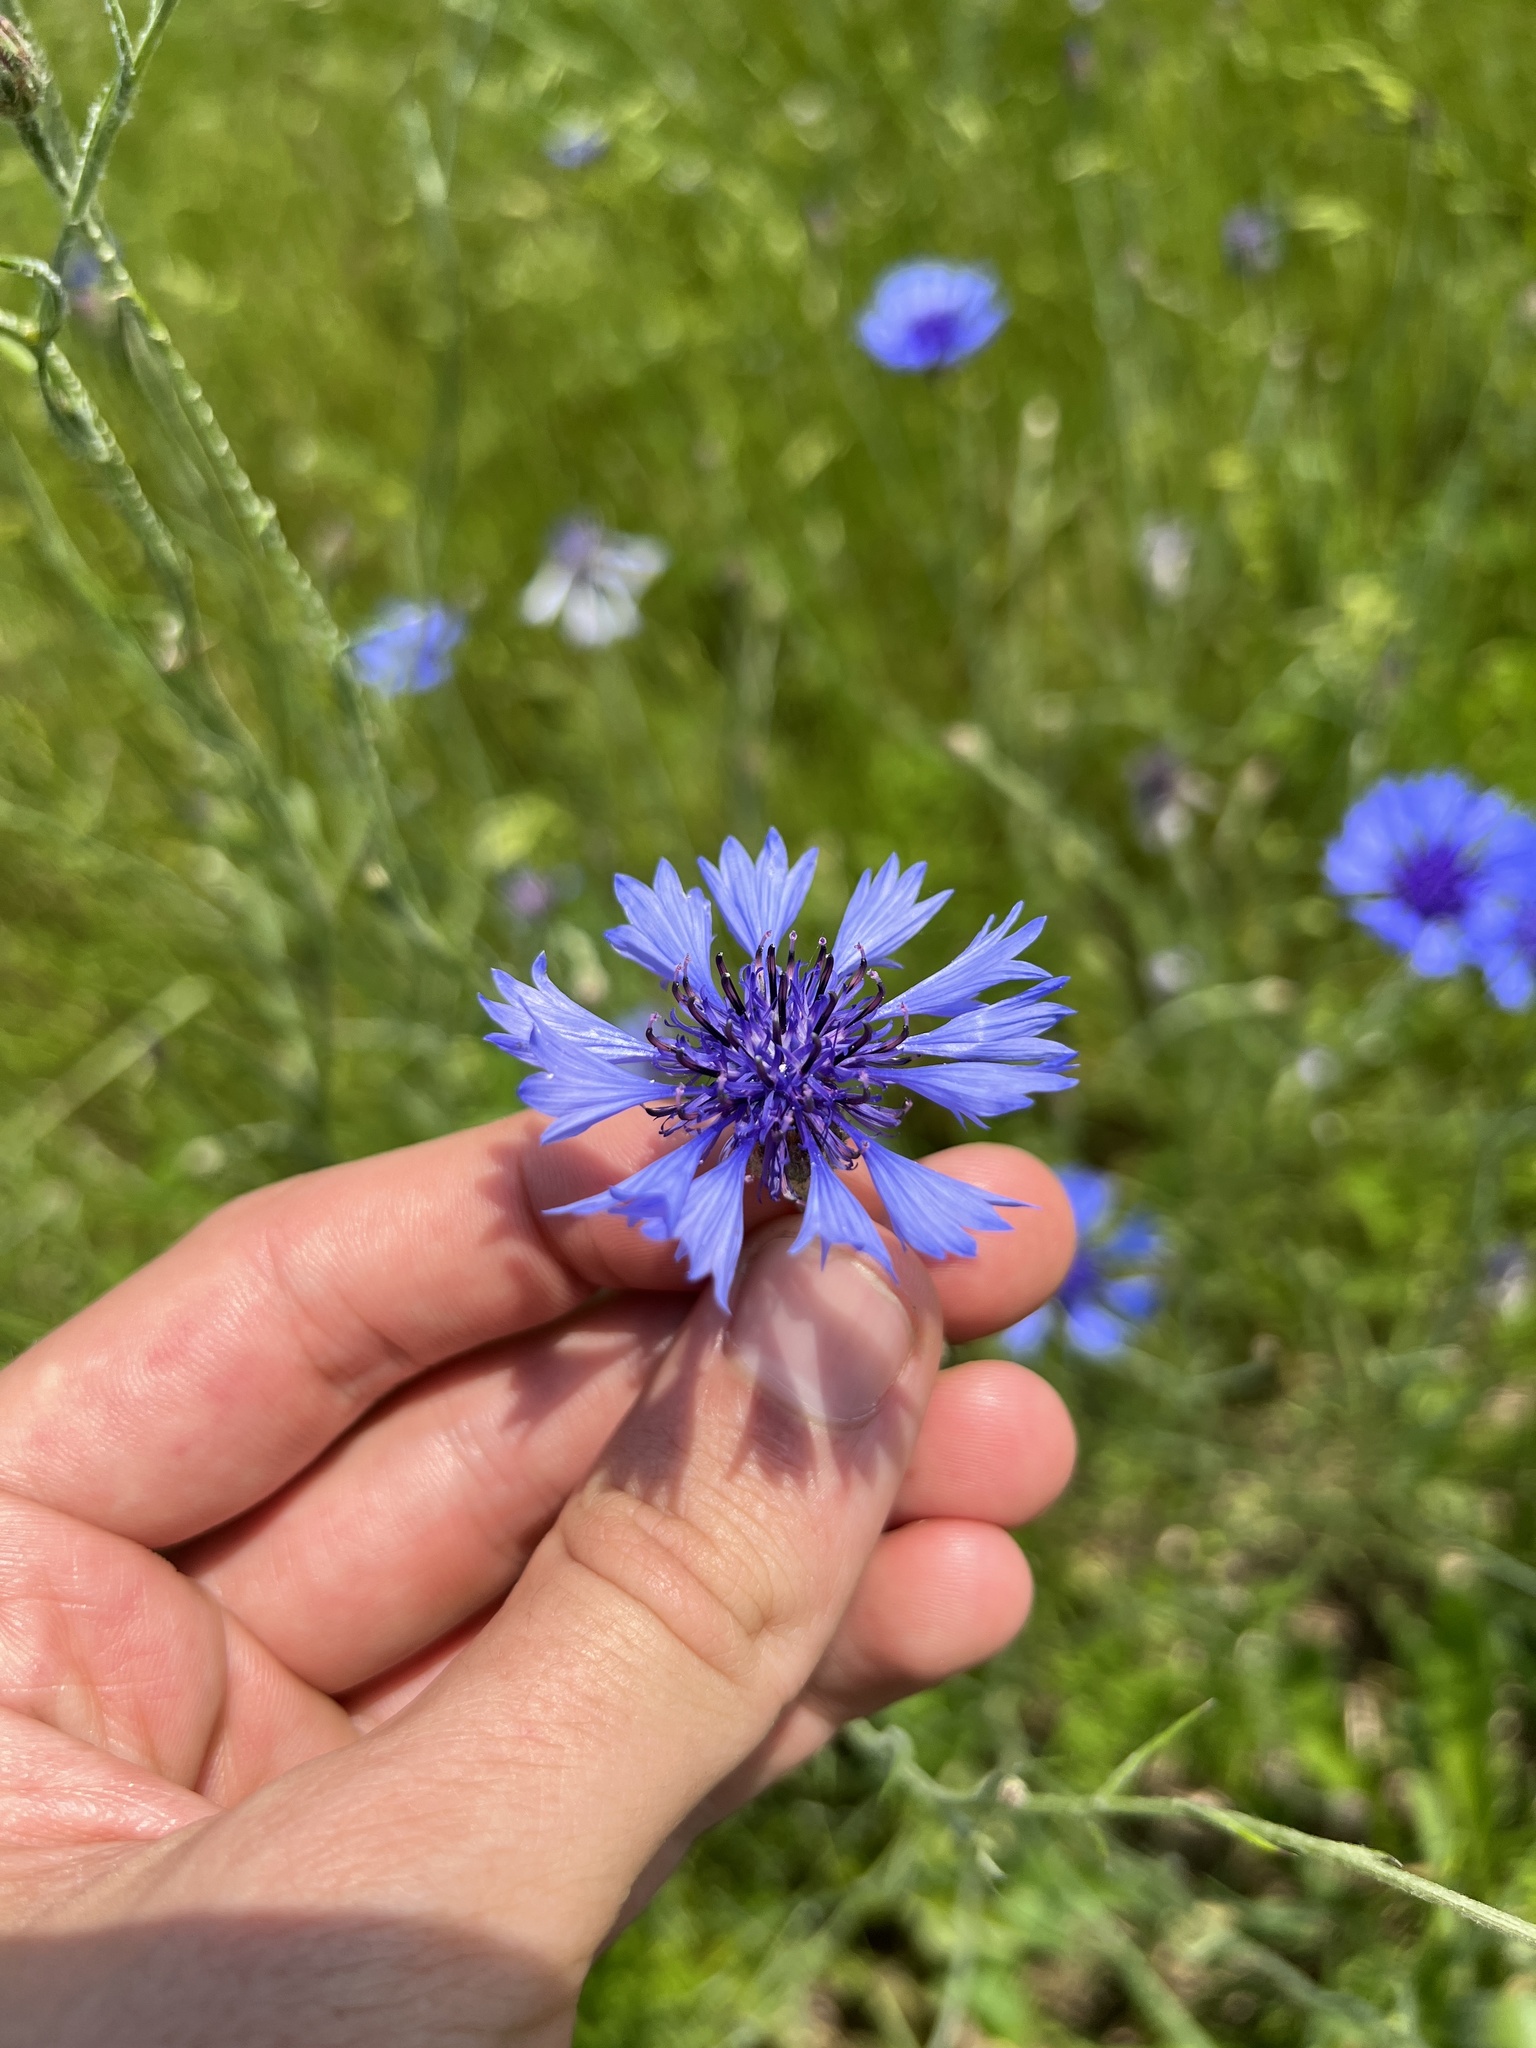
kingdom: Plantae
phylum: Tracheophyta
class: Magnoliopsida
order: Asterales
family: Asteraceae
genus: Centaurea
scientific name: Centaurea cyanus
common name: Cornflower
